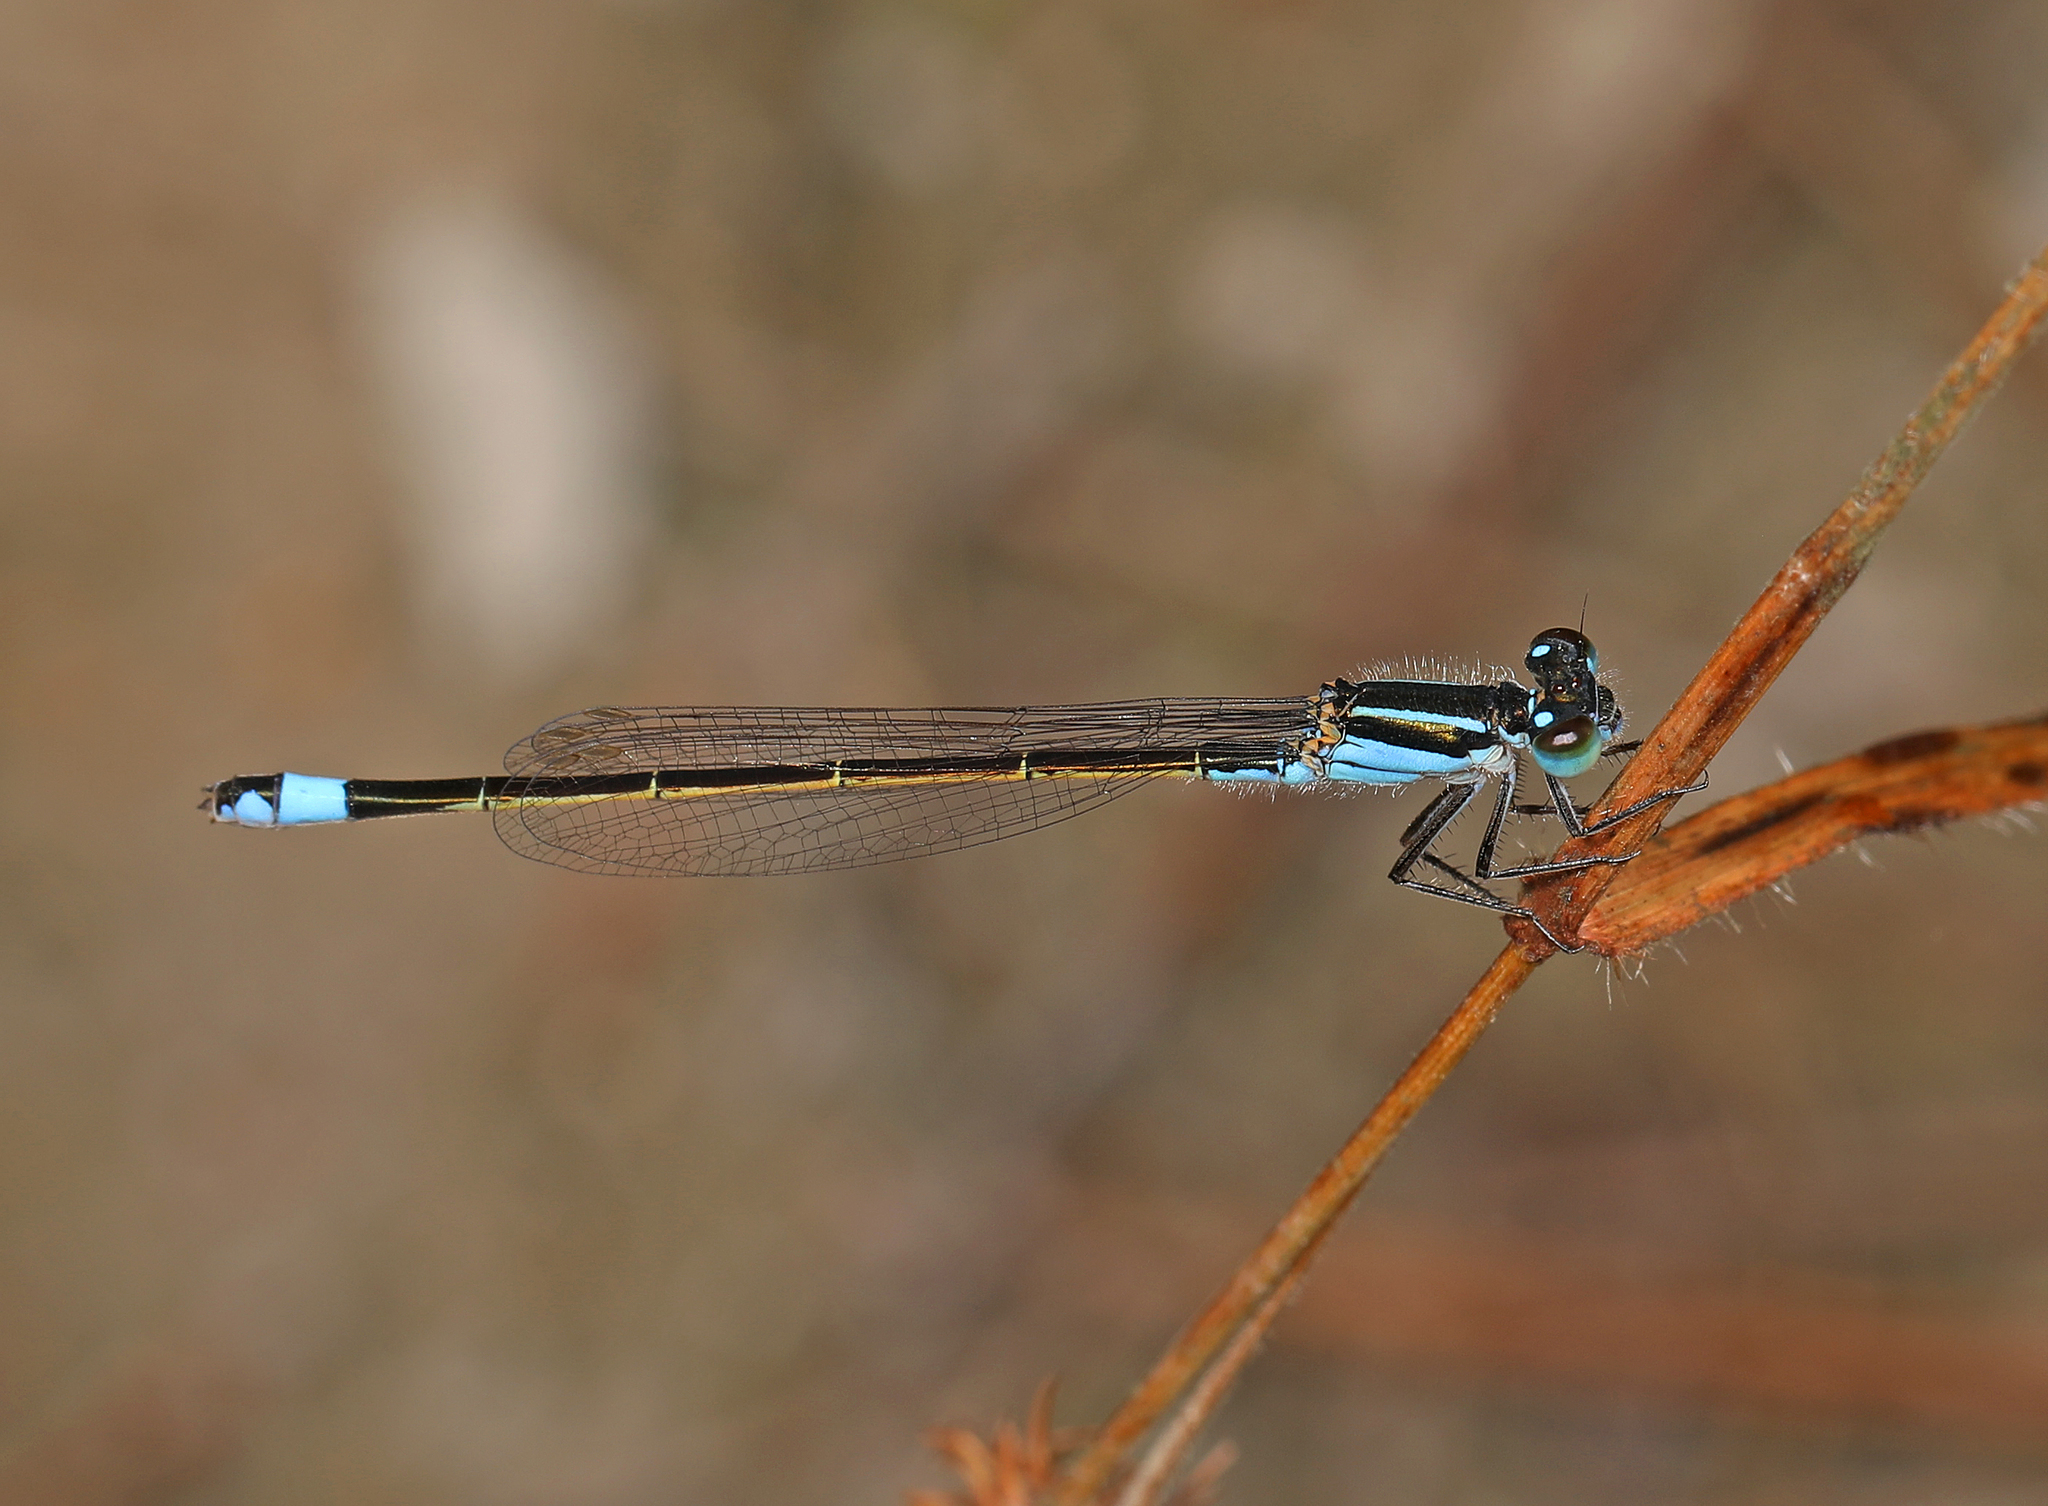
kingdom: Animalia
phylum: Arthropoda
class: Insecta
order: Odonata
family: Coenagrionidae
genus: Ischnura
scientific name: Ischnura ramburii
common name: Rambur's forktail
